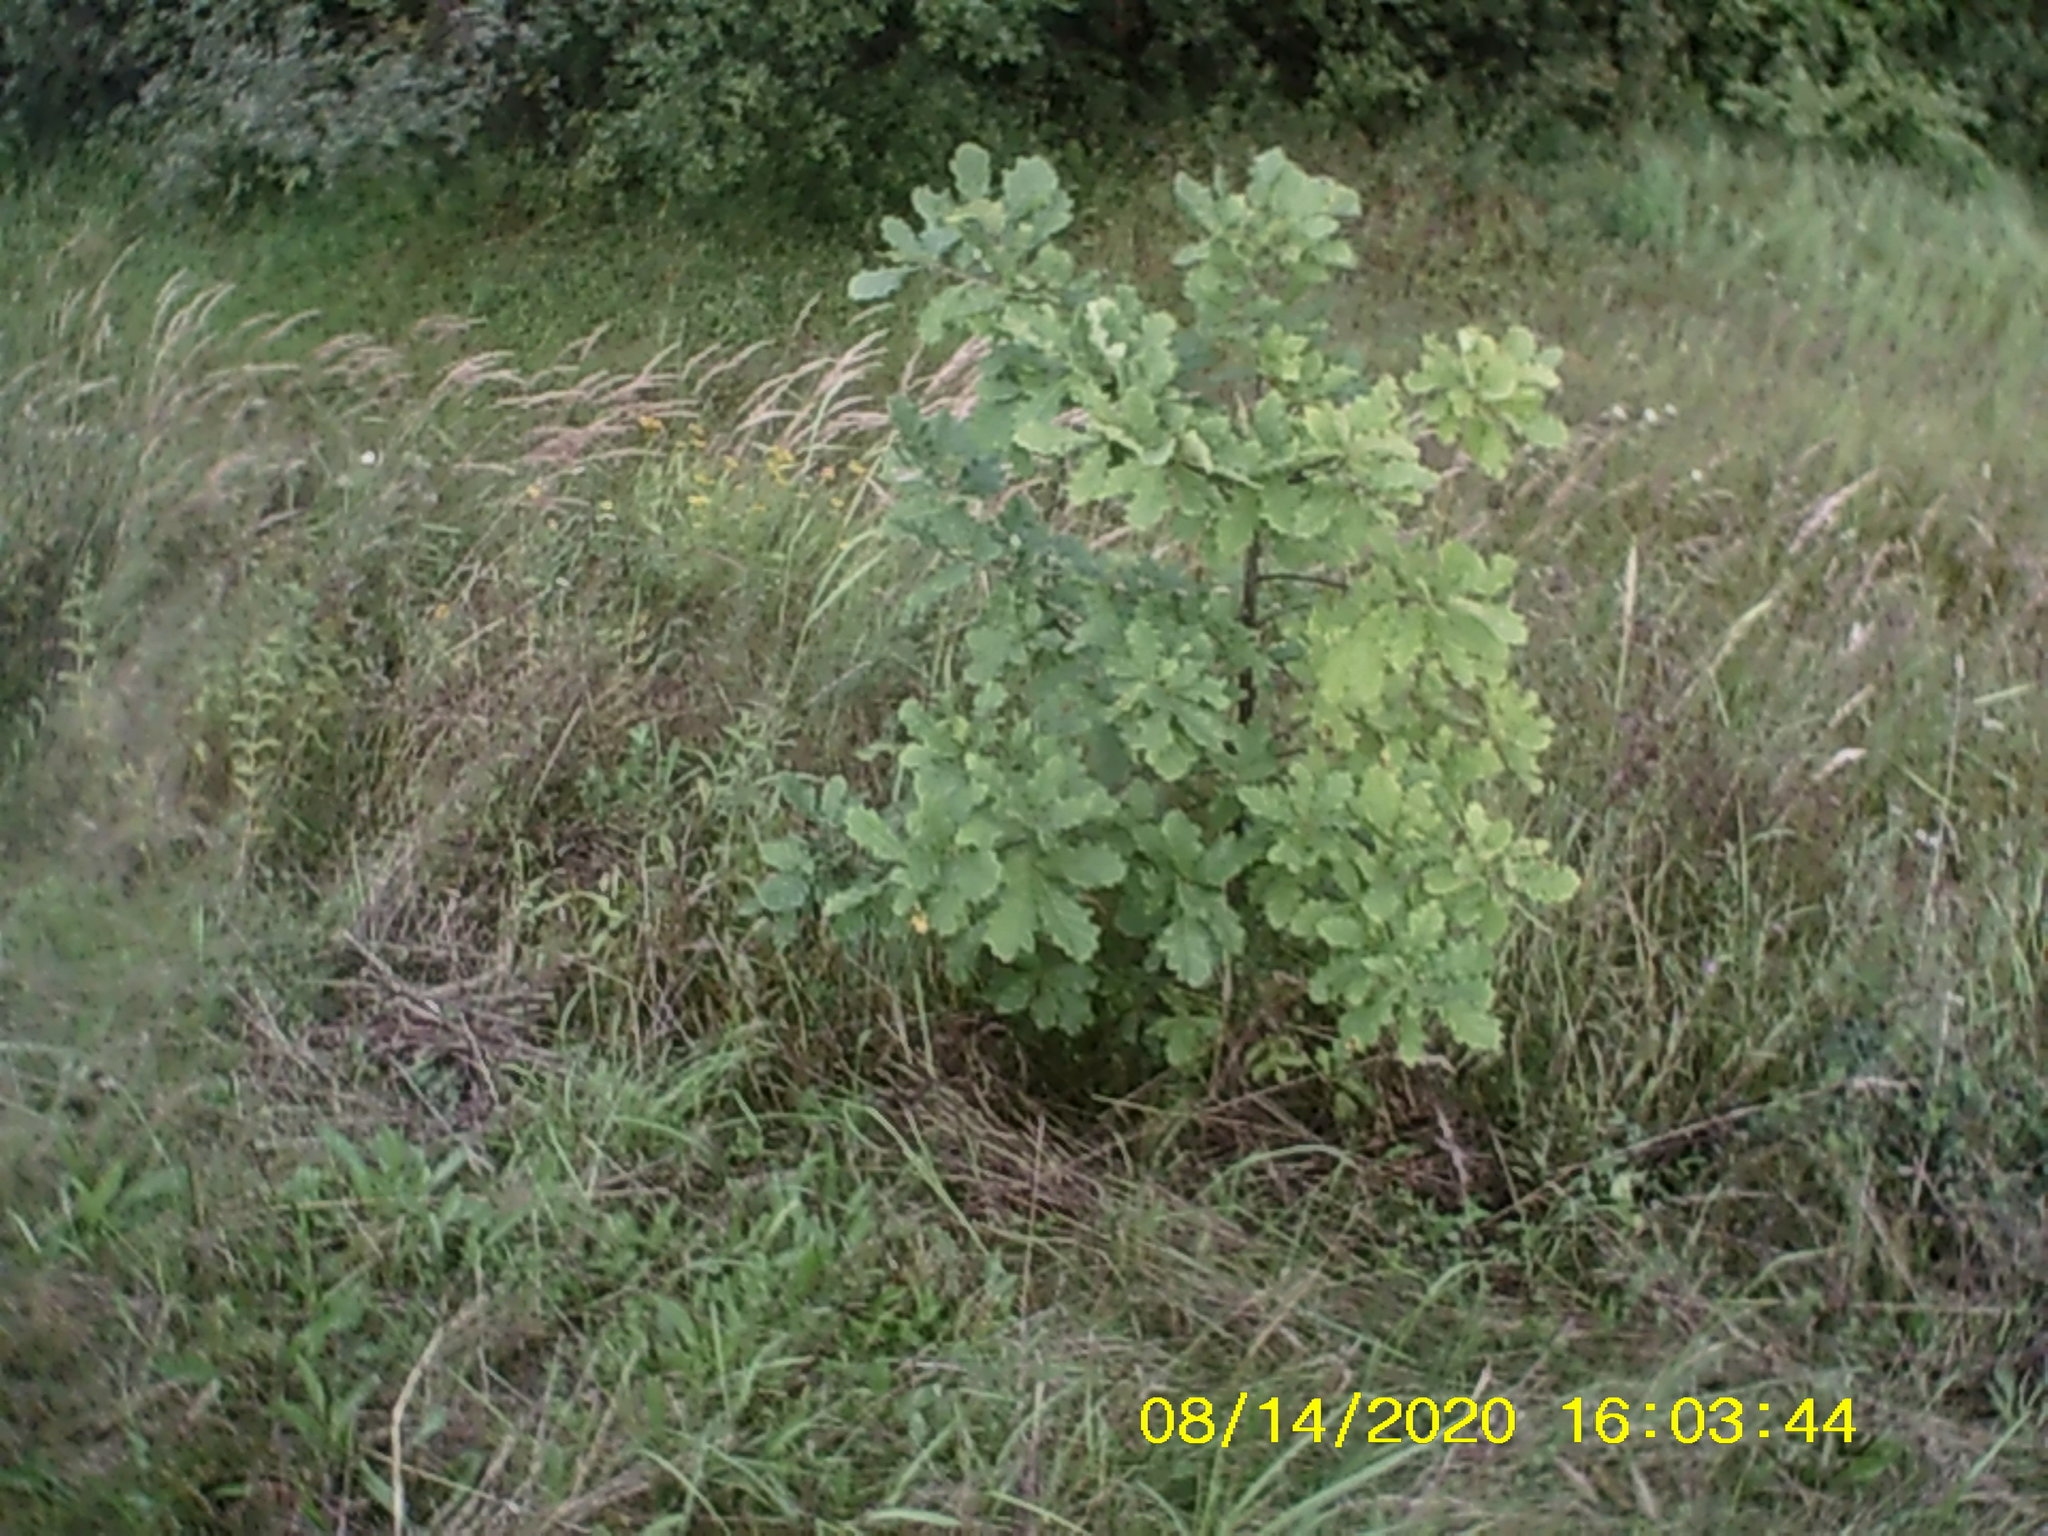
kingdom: Plantae
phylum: Tracheophyta
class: Magnoliopsida
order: Fagales
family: Fagaceae
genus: Quercus
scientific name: Quercus robur
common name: Pedunculate oak
